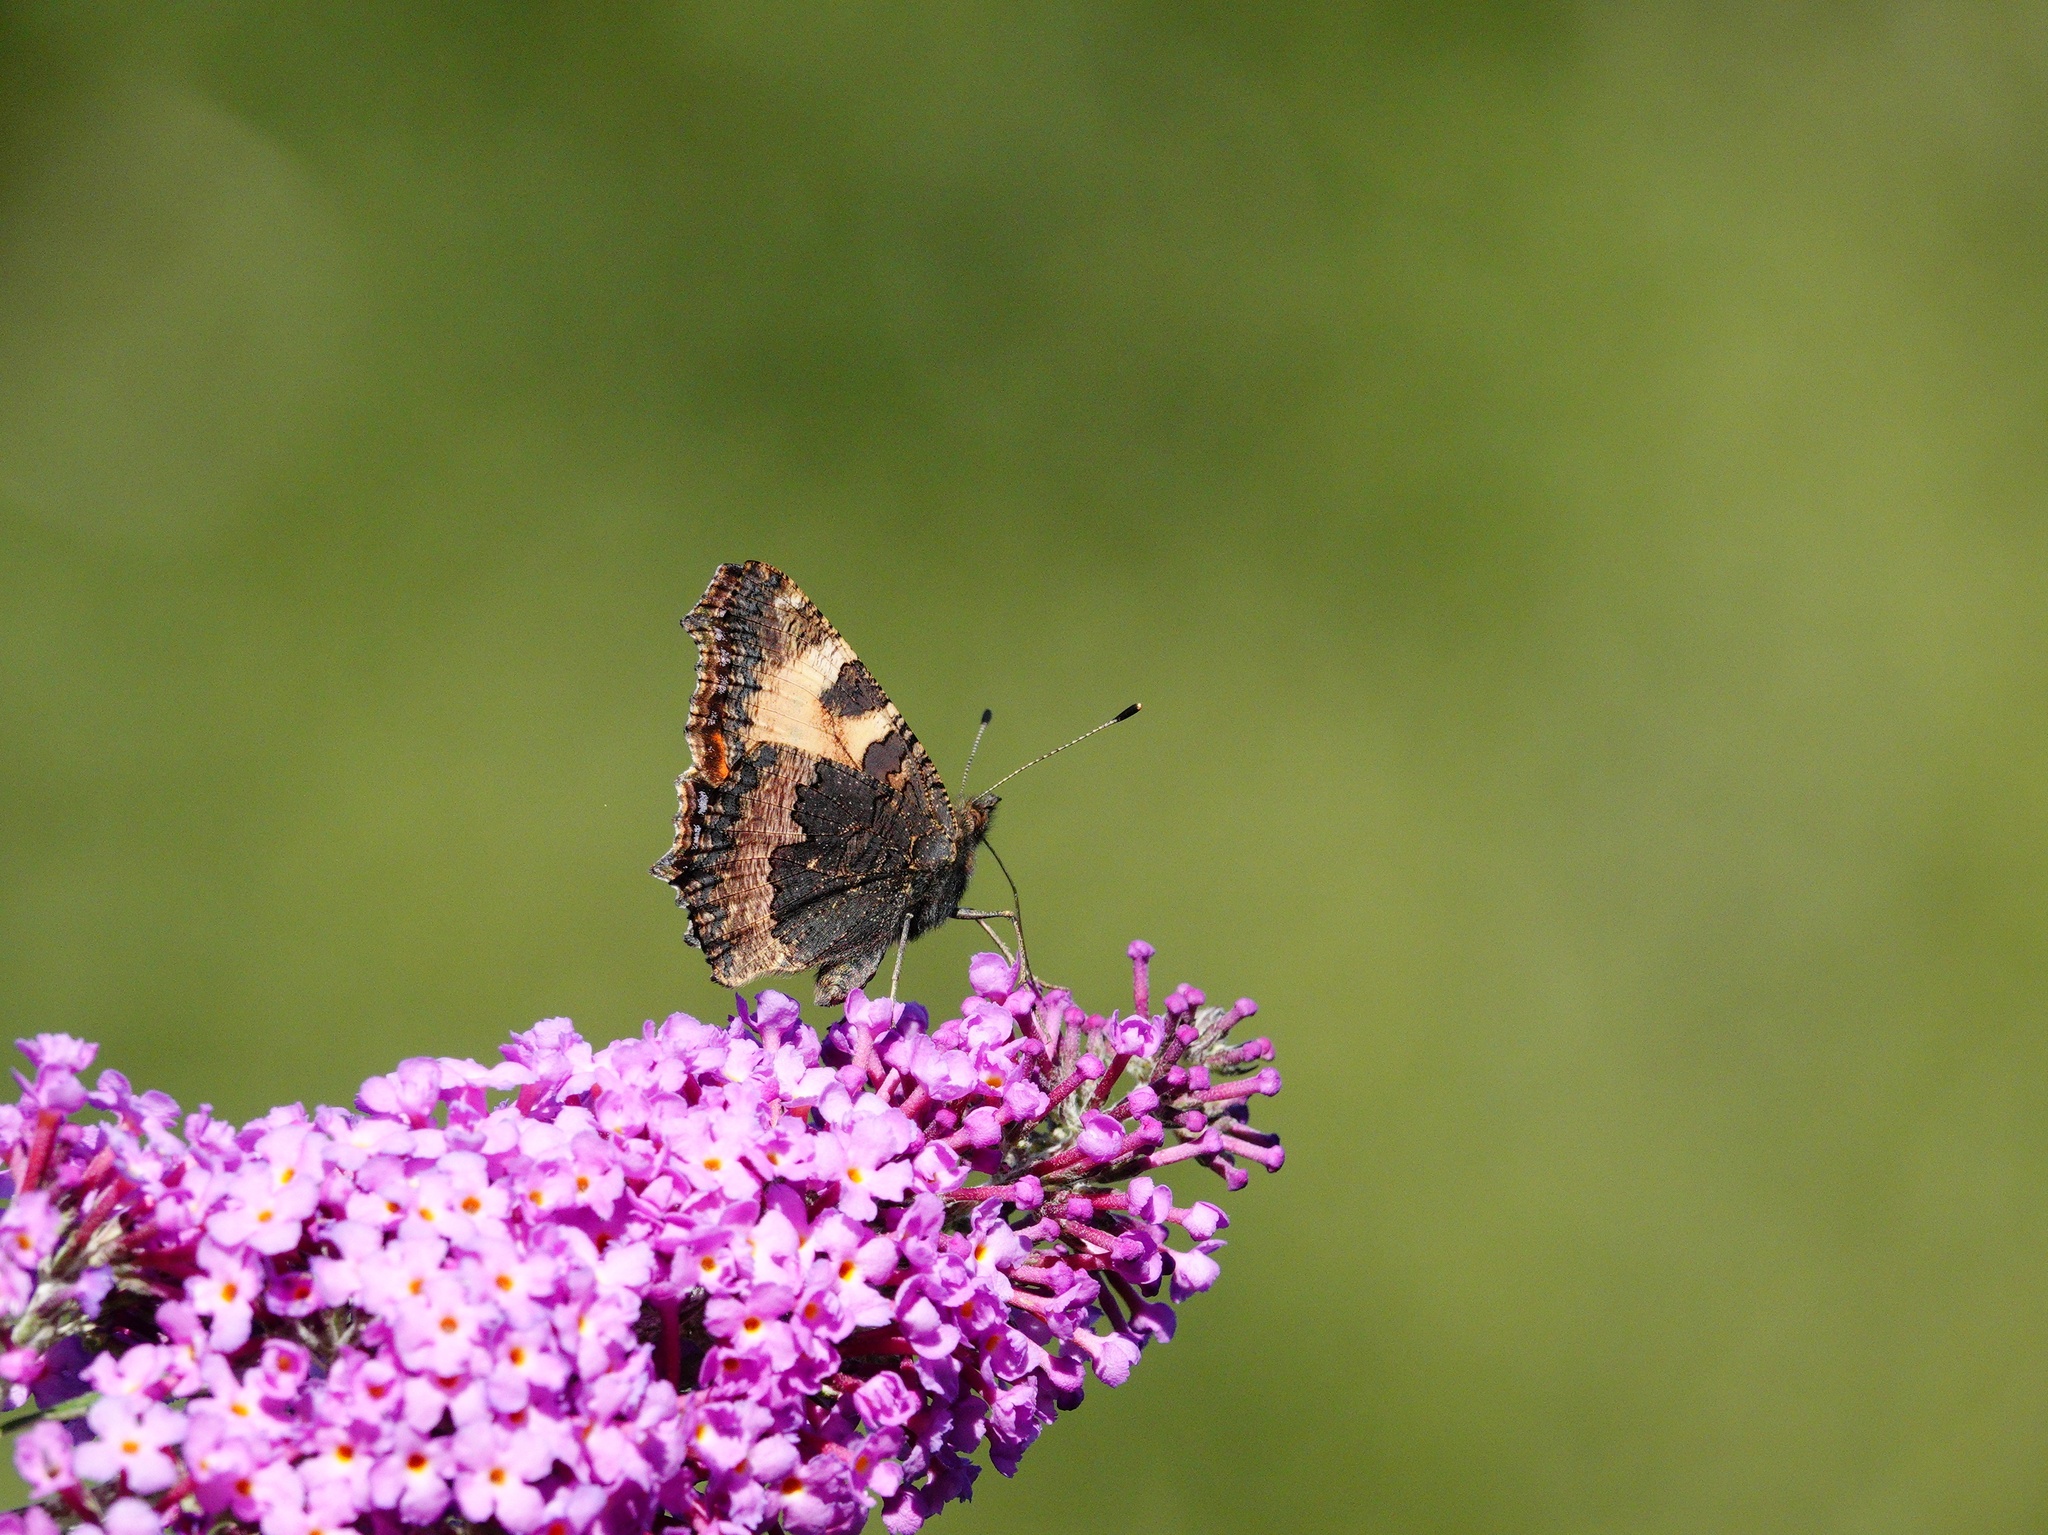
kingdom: Animalia
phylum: Arthropoda
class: Insecta
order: Lepidoptera
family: Nymphalidae
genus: Aglais
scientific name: Aglais urticae
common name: Small tortoiseshell
